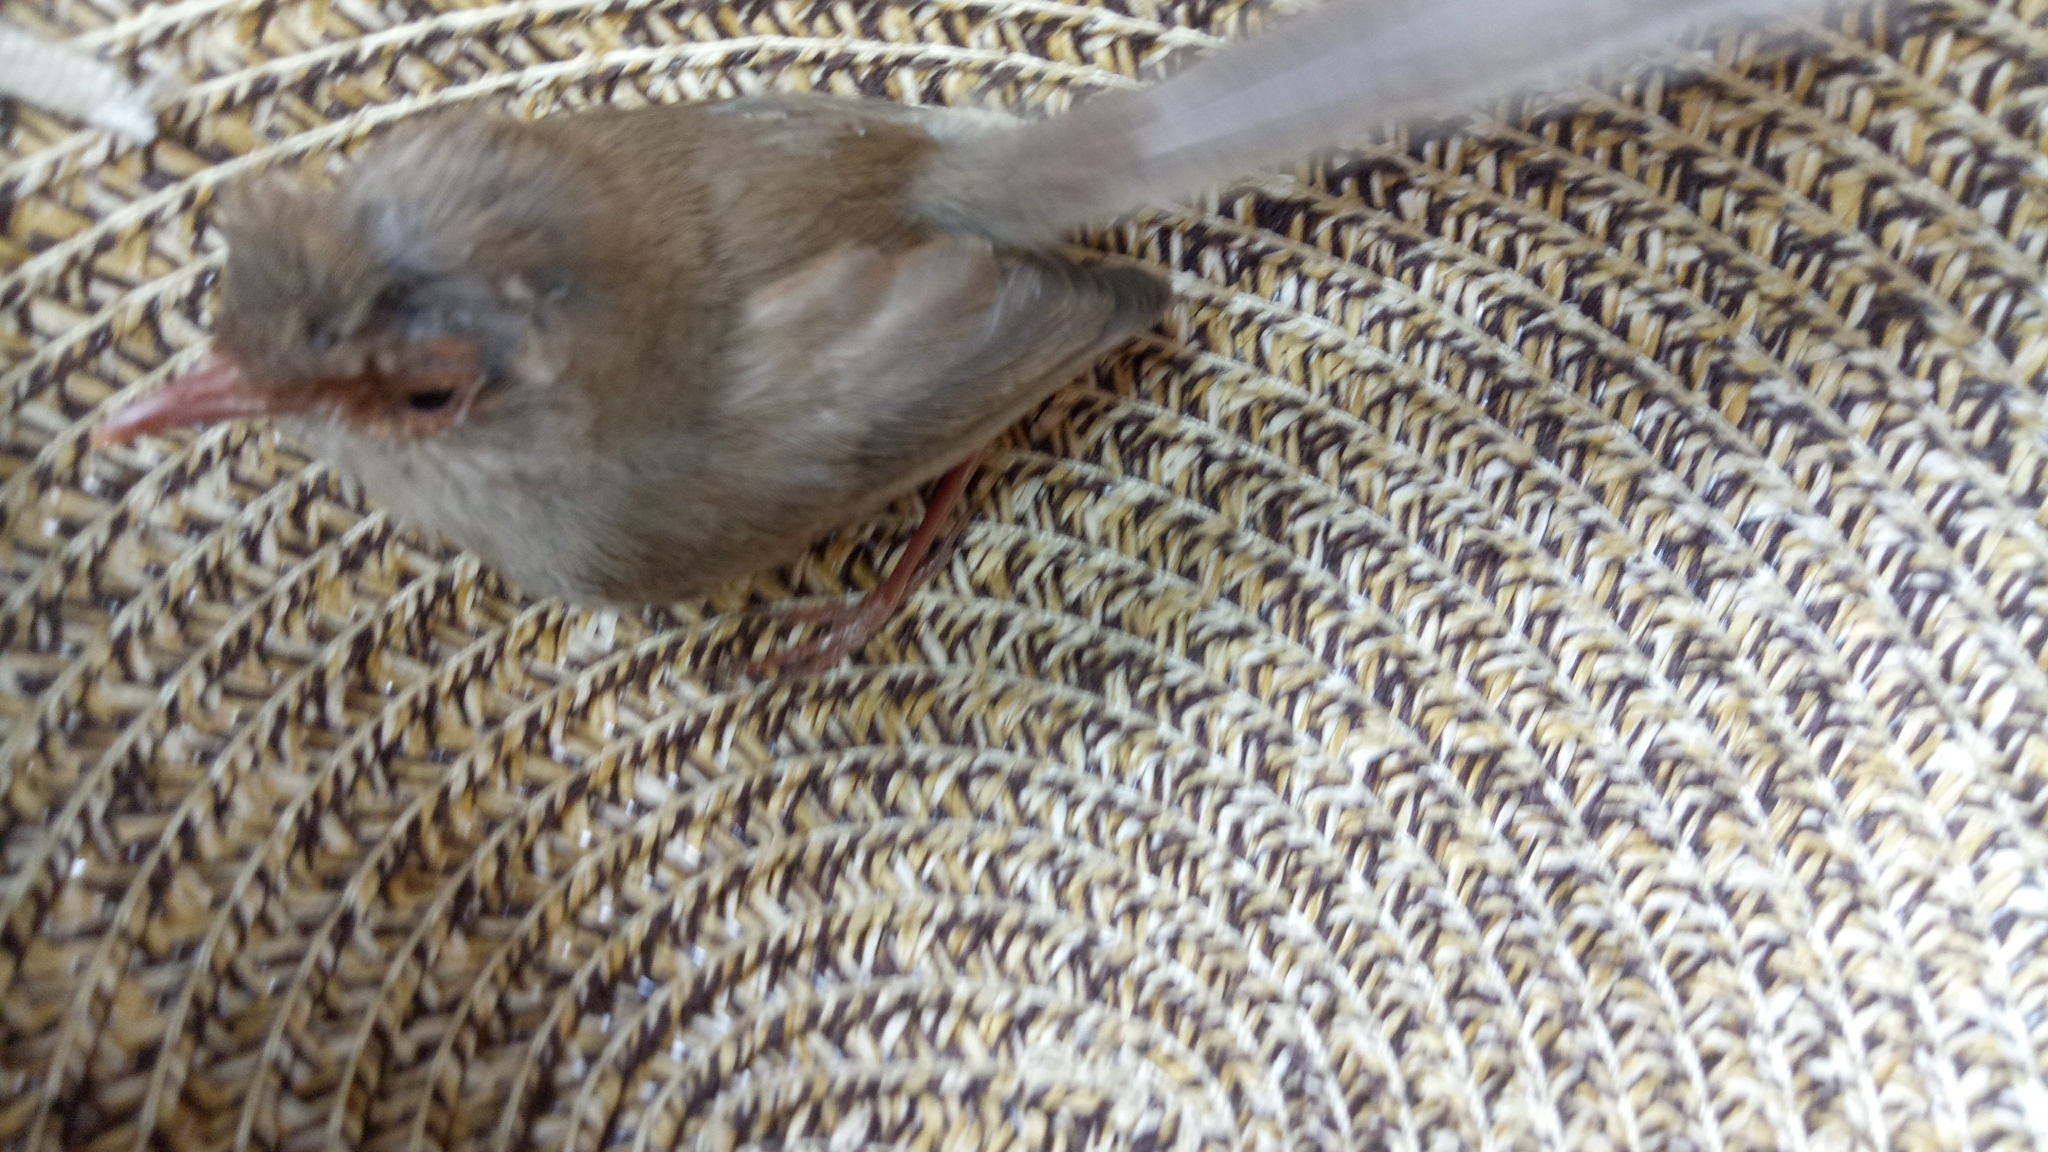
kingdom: Animalia
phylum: Chordata
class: Aves
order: Passeriformes
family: Maluridae
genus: Malurus
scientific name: Malurus cyaneus
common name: Superb fairywren
